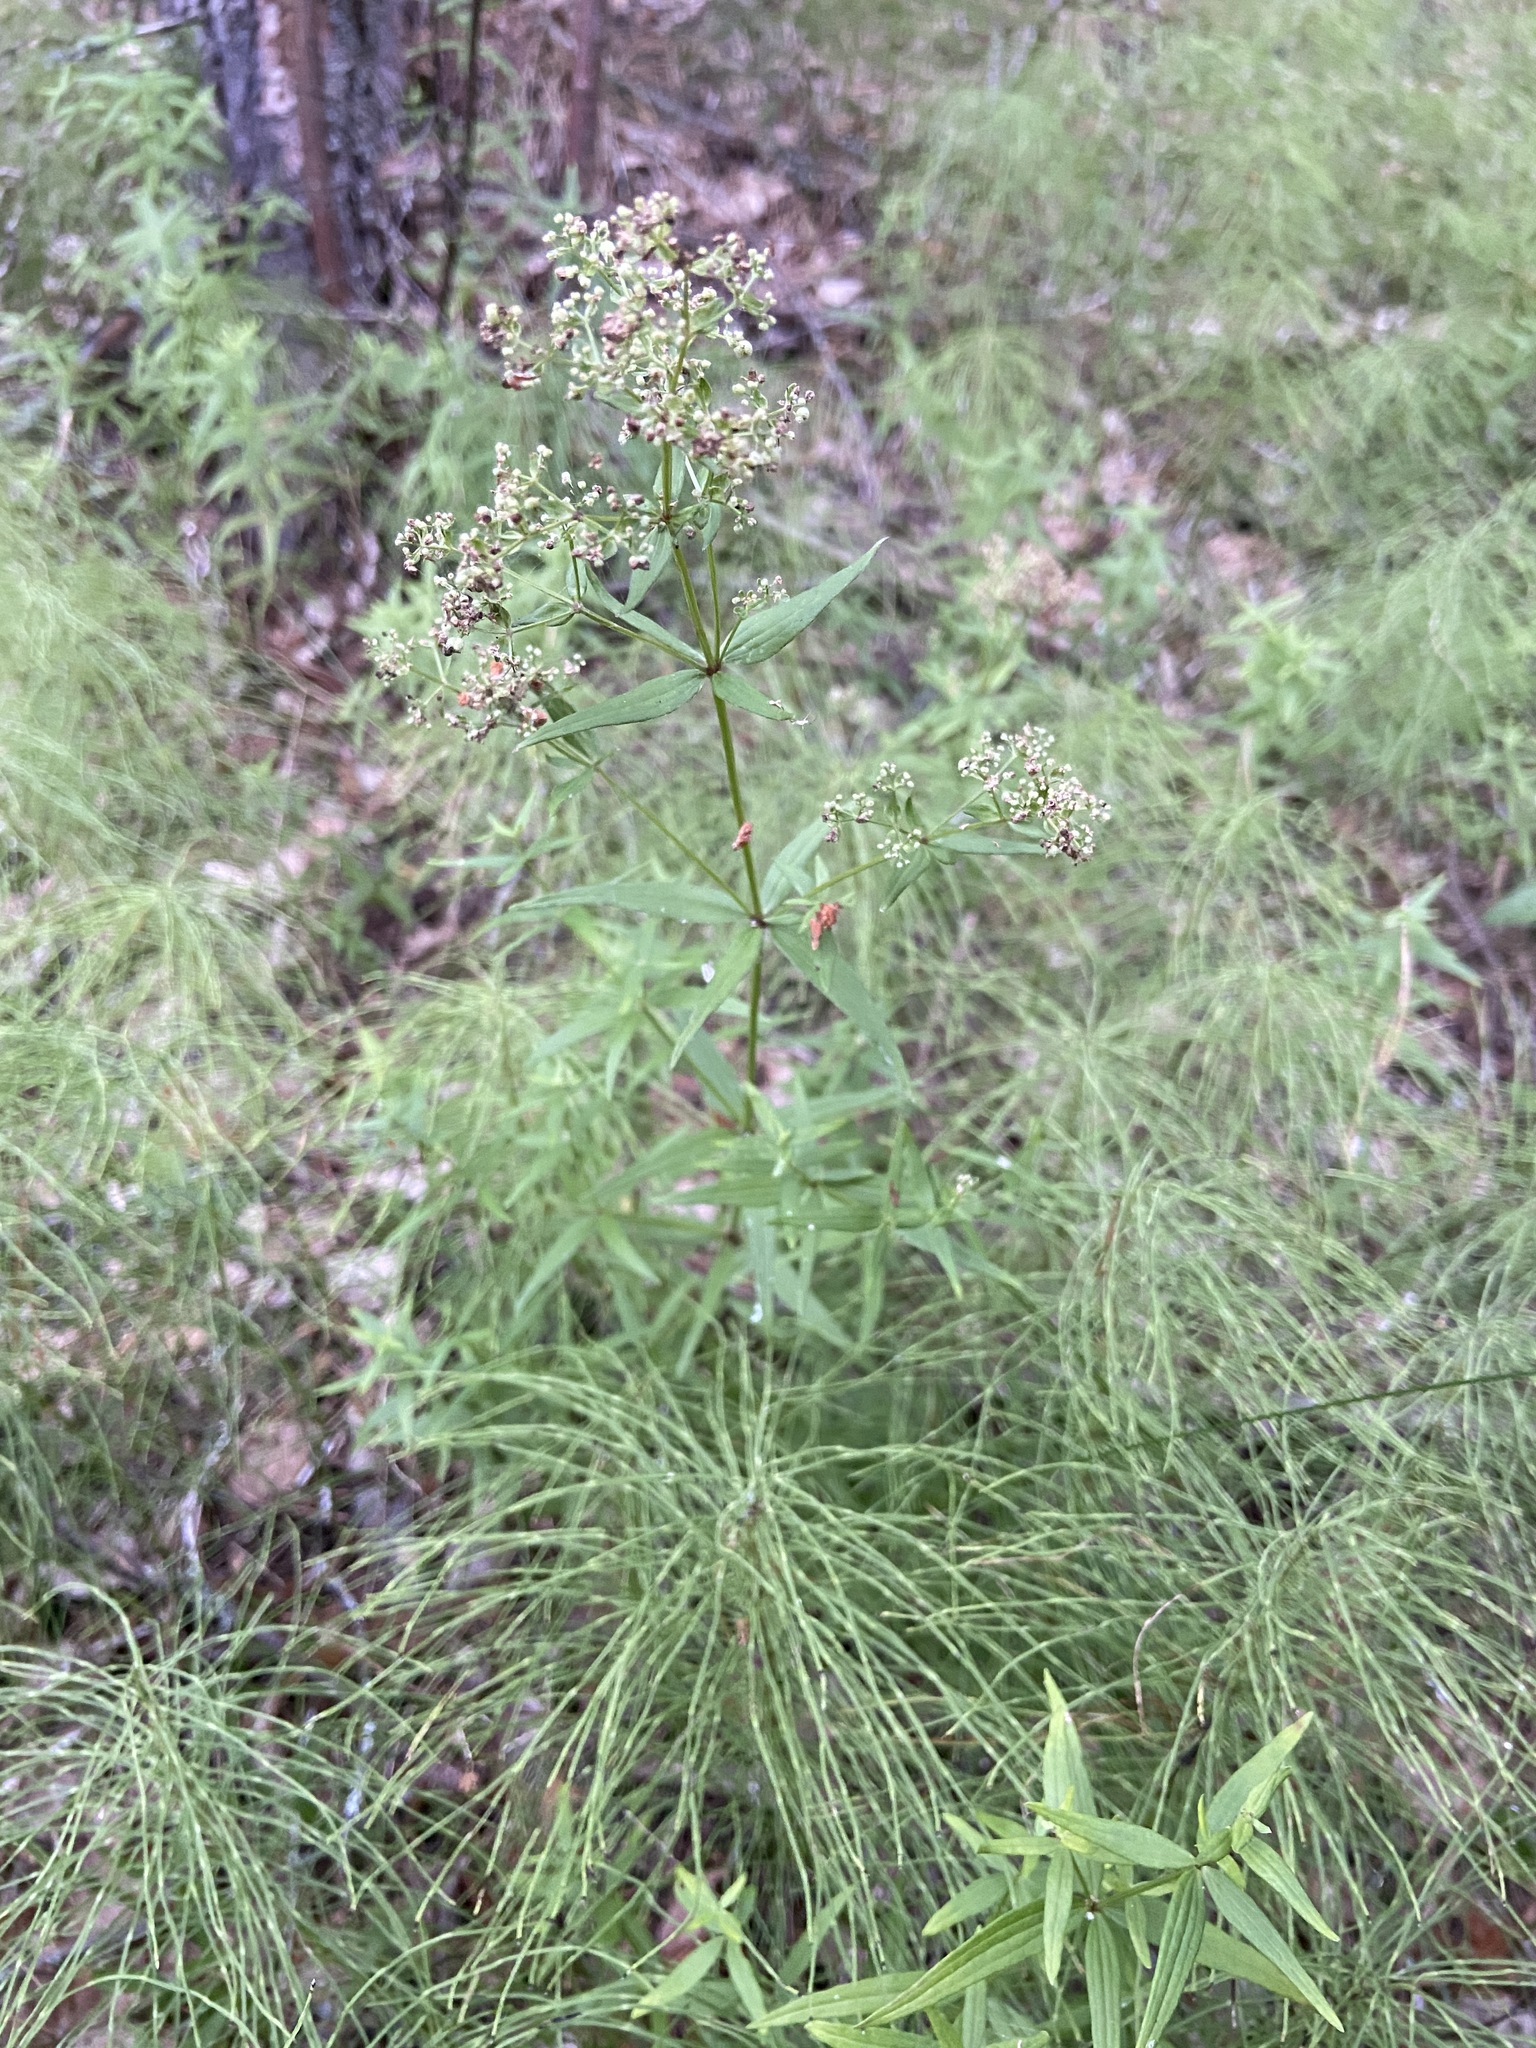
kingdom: Plantae
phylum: Tracheophyta
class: Magnoliopsida
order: Gentianales
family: Rubiaceae
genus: Galium
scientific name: Galium boreale
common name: Northern bedstraw
